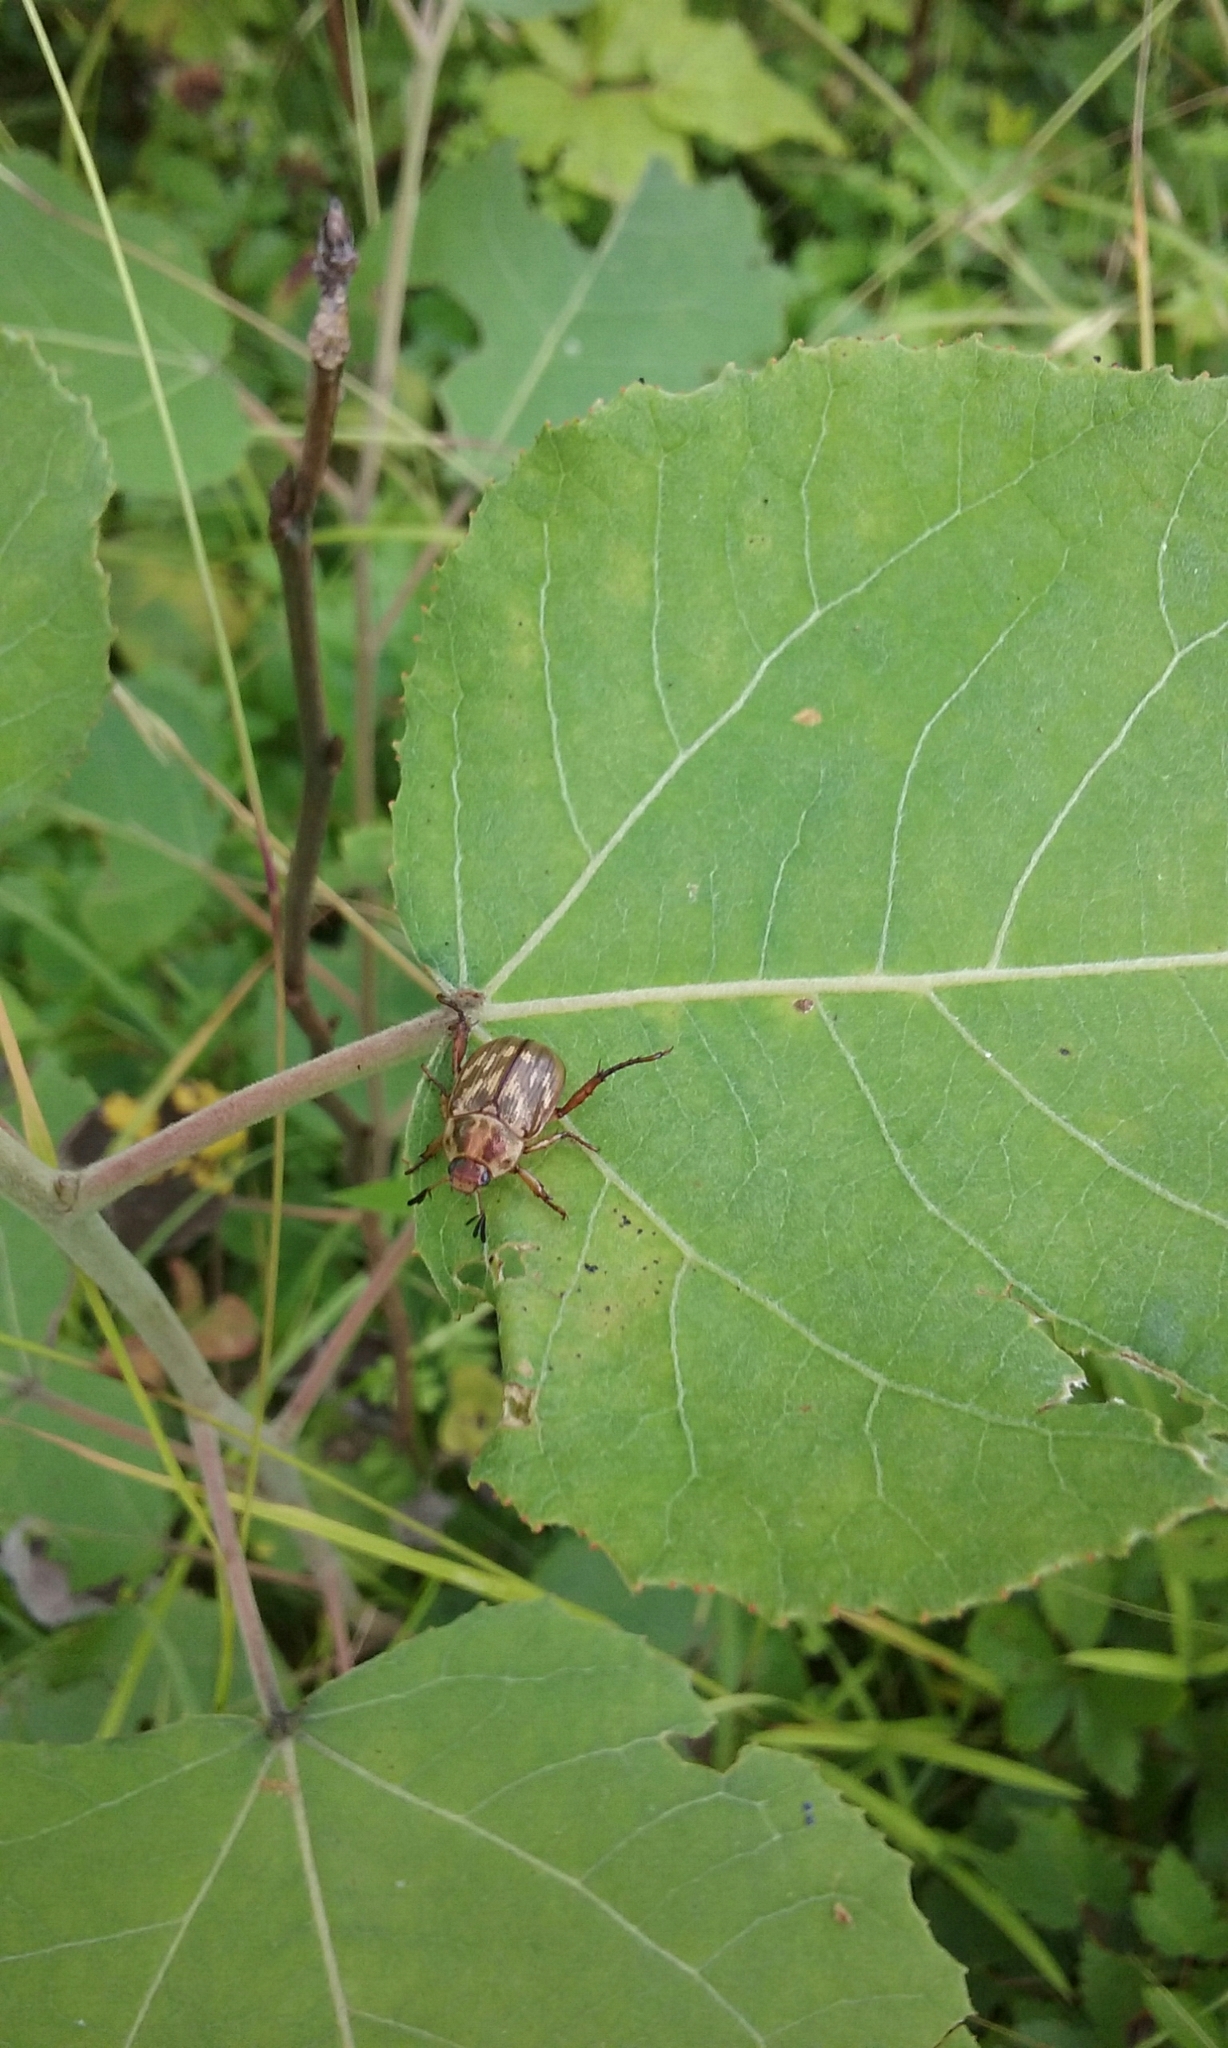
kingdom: Animalia
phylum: Arthropoda
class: Insecta
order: Coleoptera
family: Scarabaeidae
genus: Exomala
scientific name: Exomala orientalis
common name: Oriental beetle
